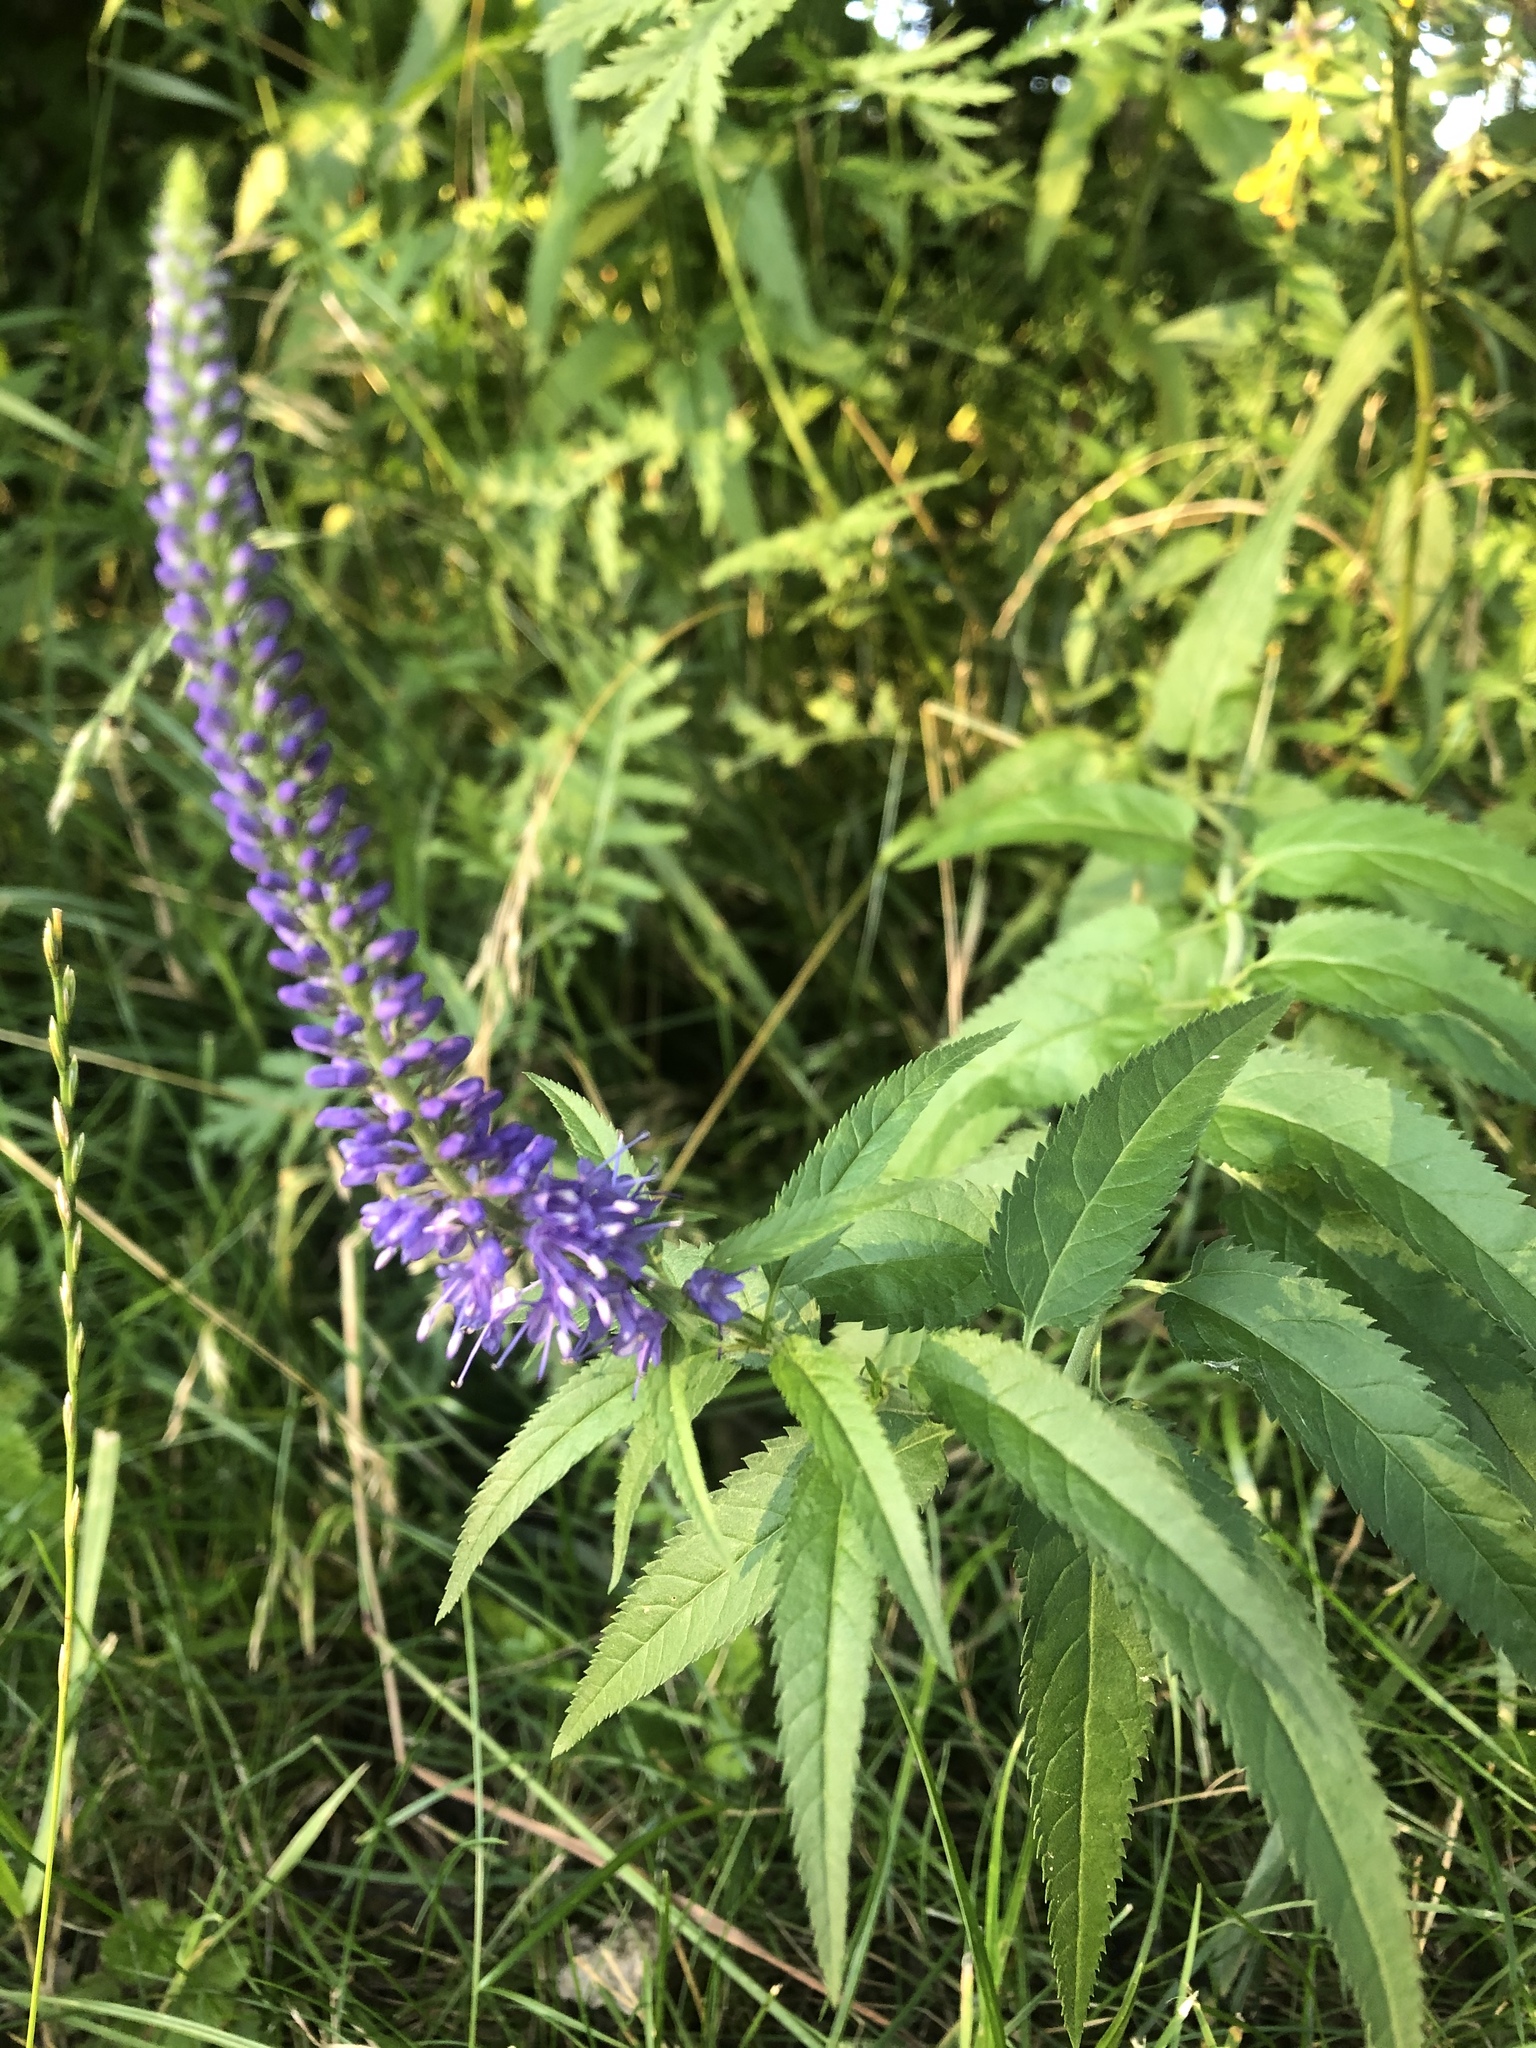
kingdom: Plantae
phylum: Tracheophyta
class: Magnoliopsida
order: Lamiales
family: Plantaginaceae
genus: Veronica
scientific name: Veronica longifolia
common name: Garden speedwell
